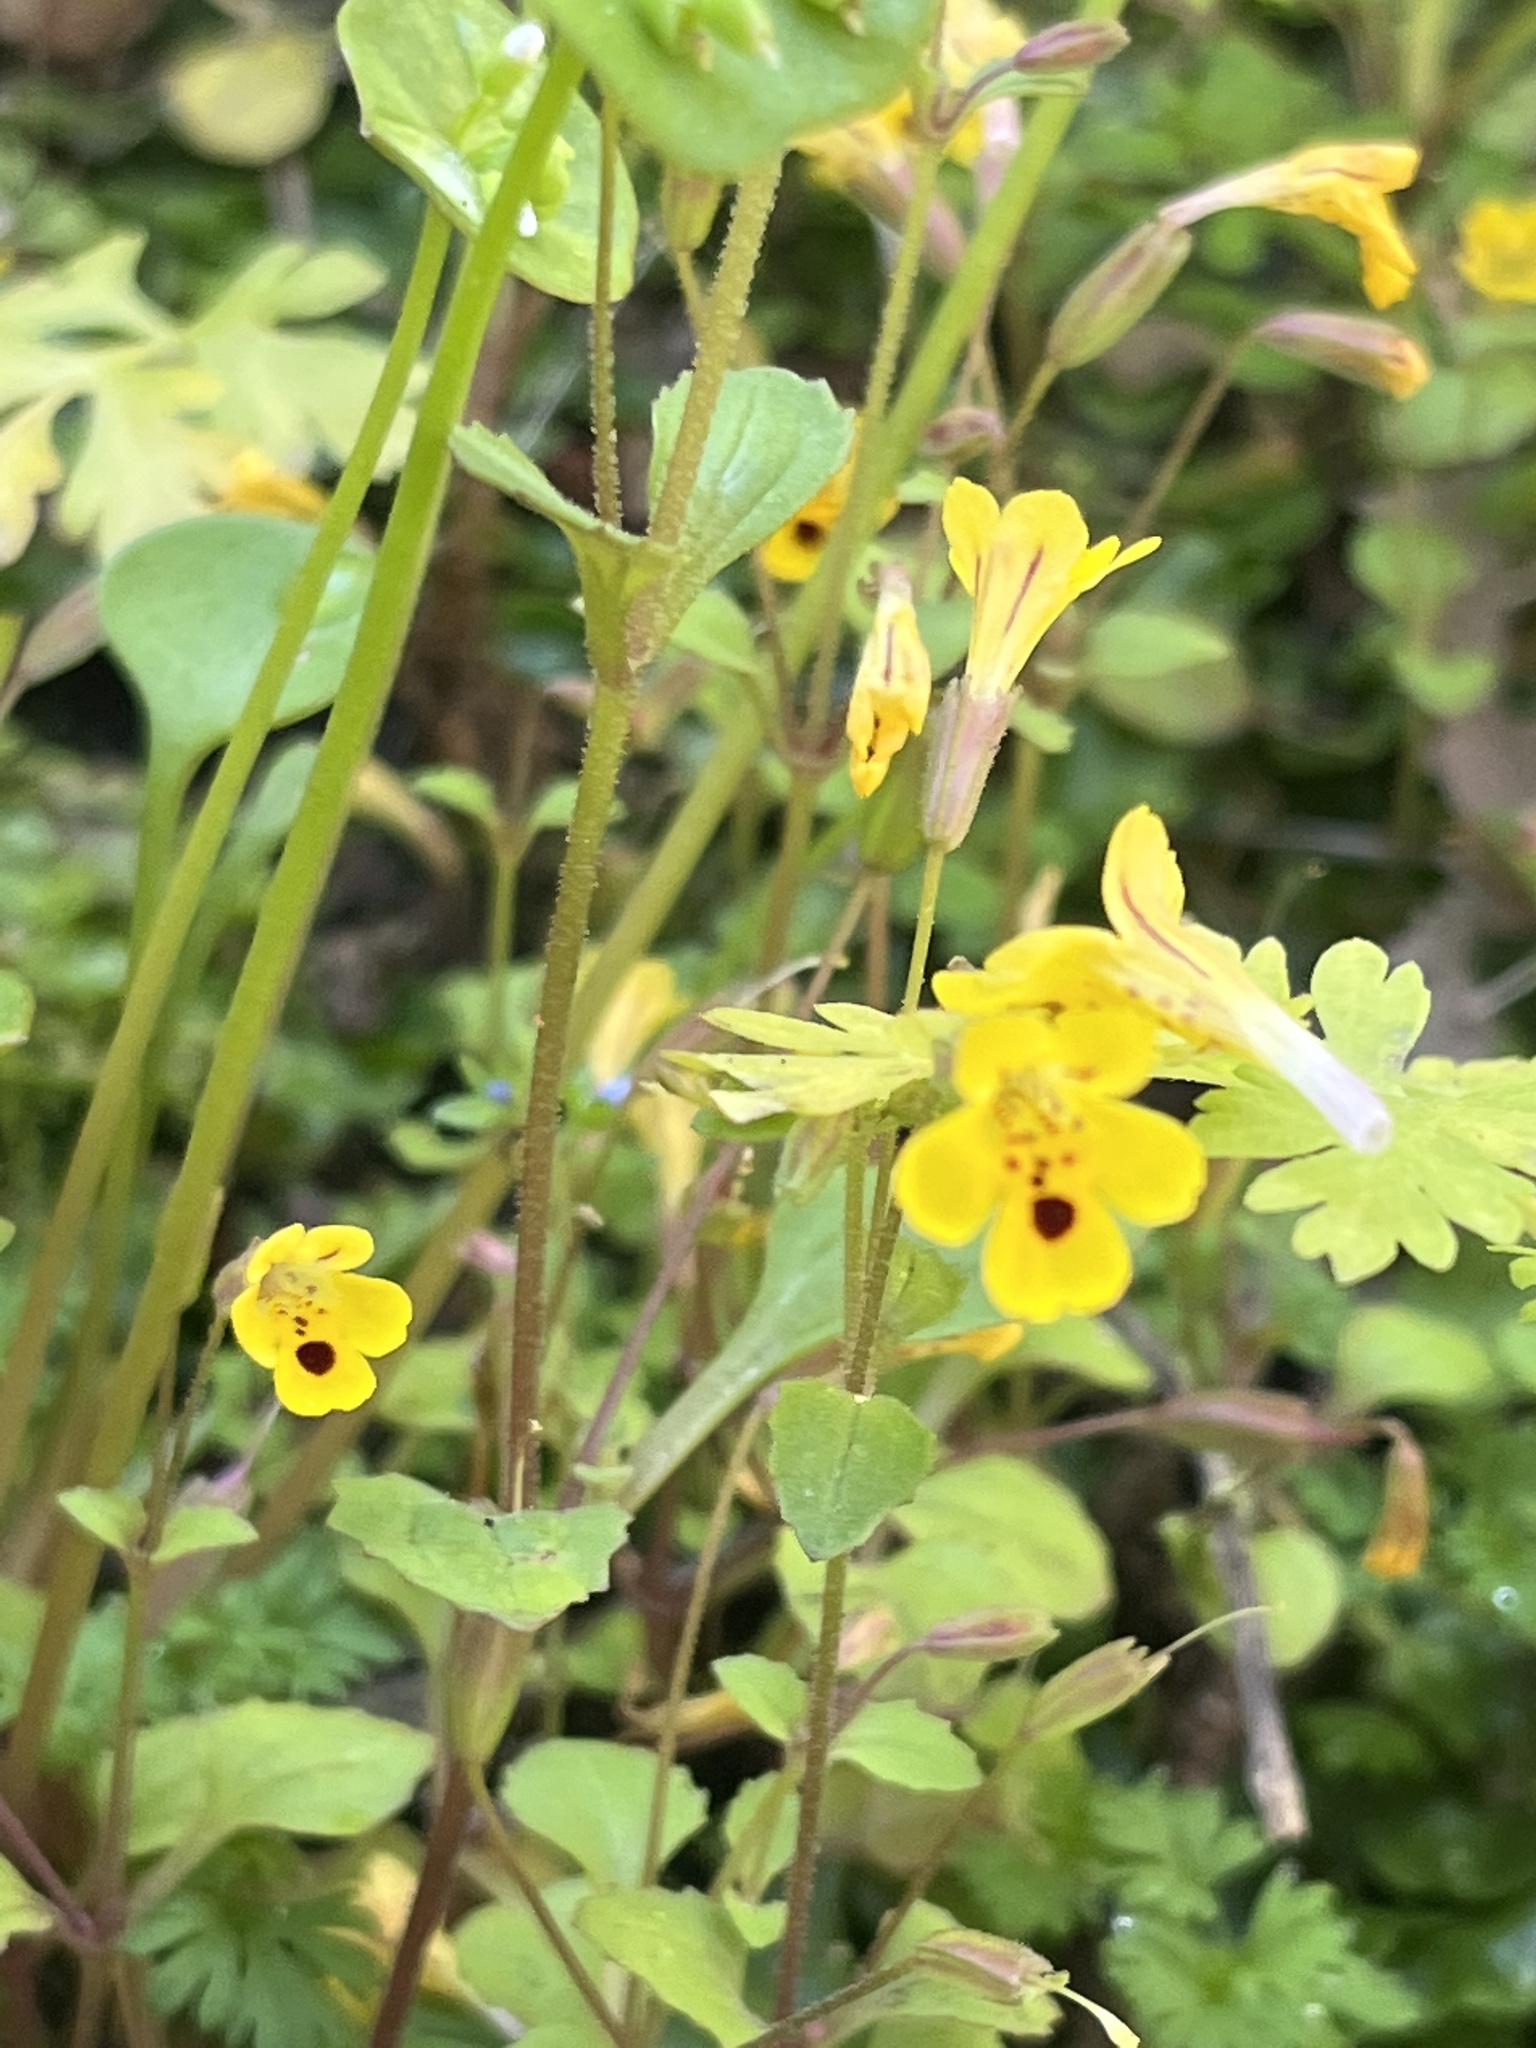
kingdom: Plantae
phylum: Tracheophyta
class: Magnoliopsida
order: Lamiales
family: Phrymaceae
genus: Erythranthe
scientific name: Erythranthe alsinoides
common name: Chickweed monkeyflower
